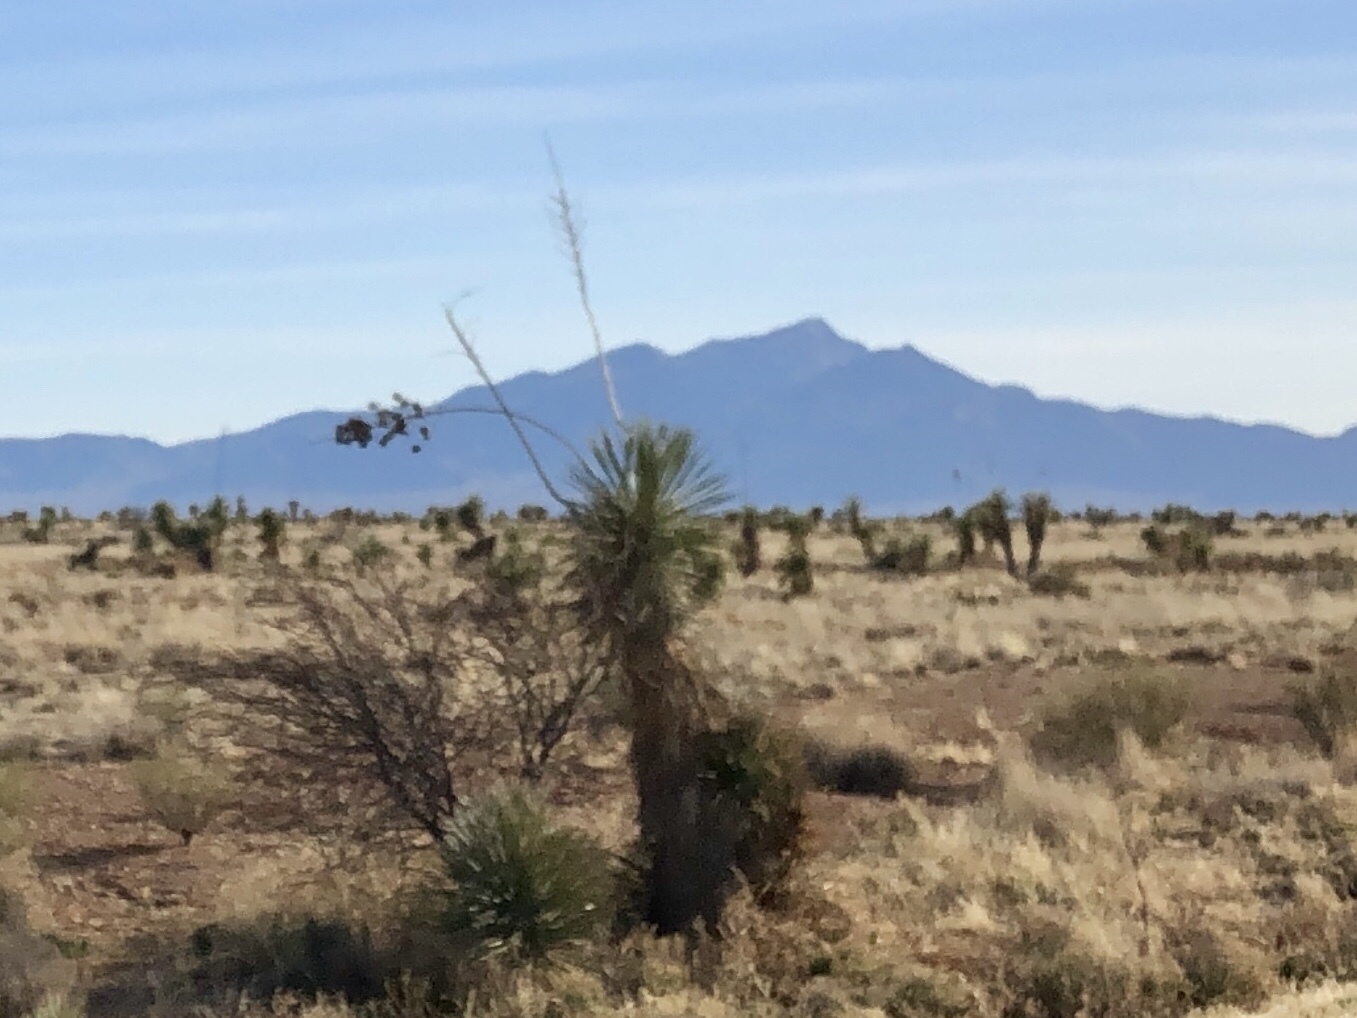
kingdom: Plantae
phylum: Tracheophyta
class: Liliopsida
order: Asparagales
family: Asparagaceae
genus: Yucca
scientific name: Yucca elata
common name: Palmella
